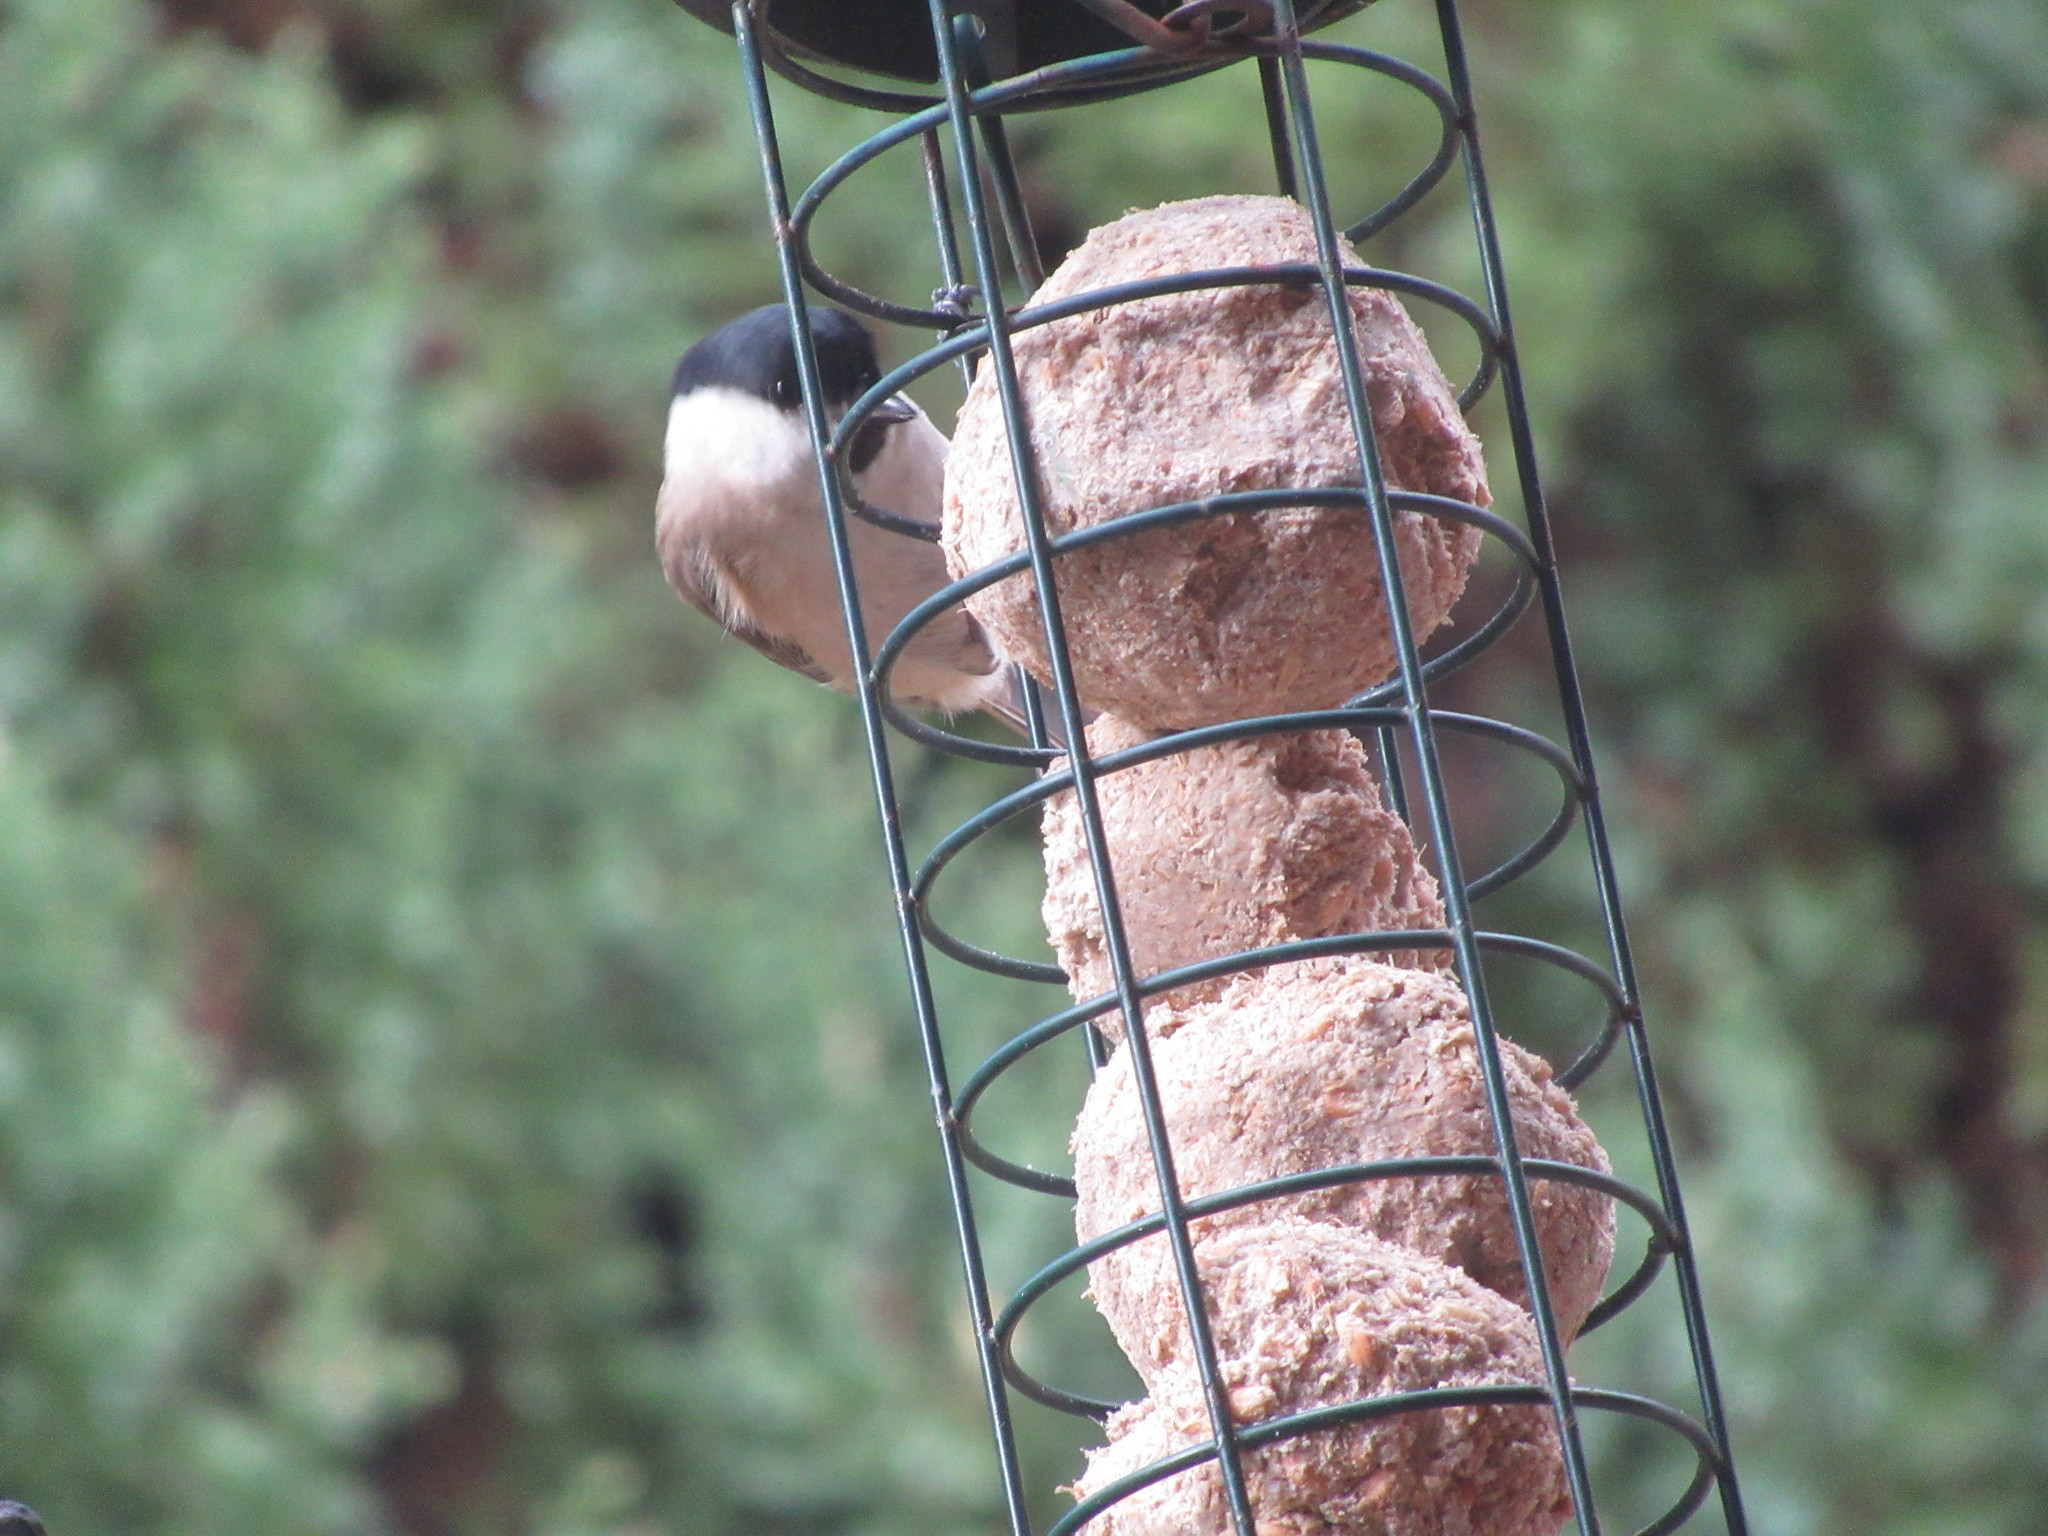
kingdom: Animalia
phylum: Chordata
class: Aves
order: Passeriformes
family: Paridae
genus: Poecile
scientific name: Poecile palustris
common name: Marsh tit
